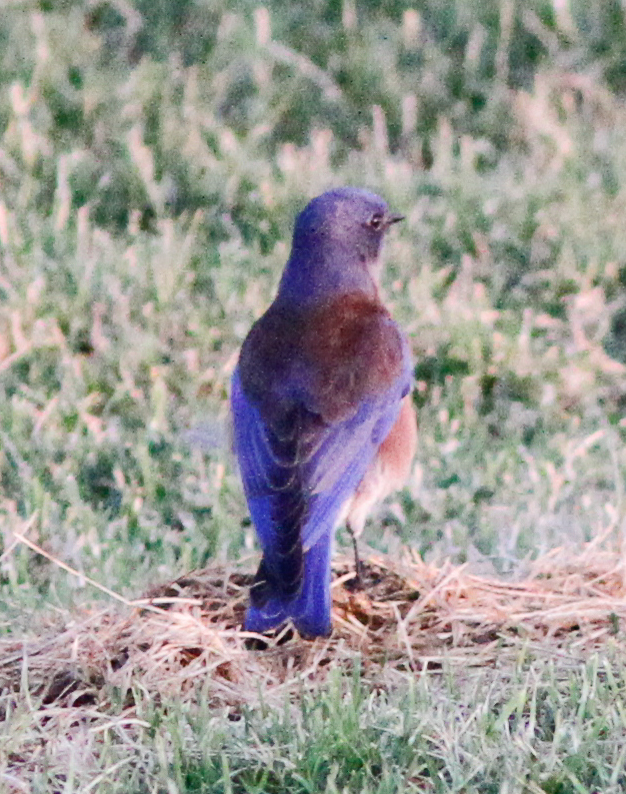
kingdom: Animalia
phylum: Chordata
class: Aves
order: Passeriformes
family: Turdidae
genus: Sialia
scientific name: Sialia mexicana
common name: Western bluebird
